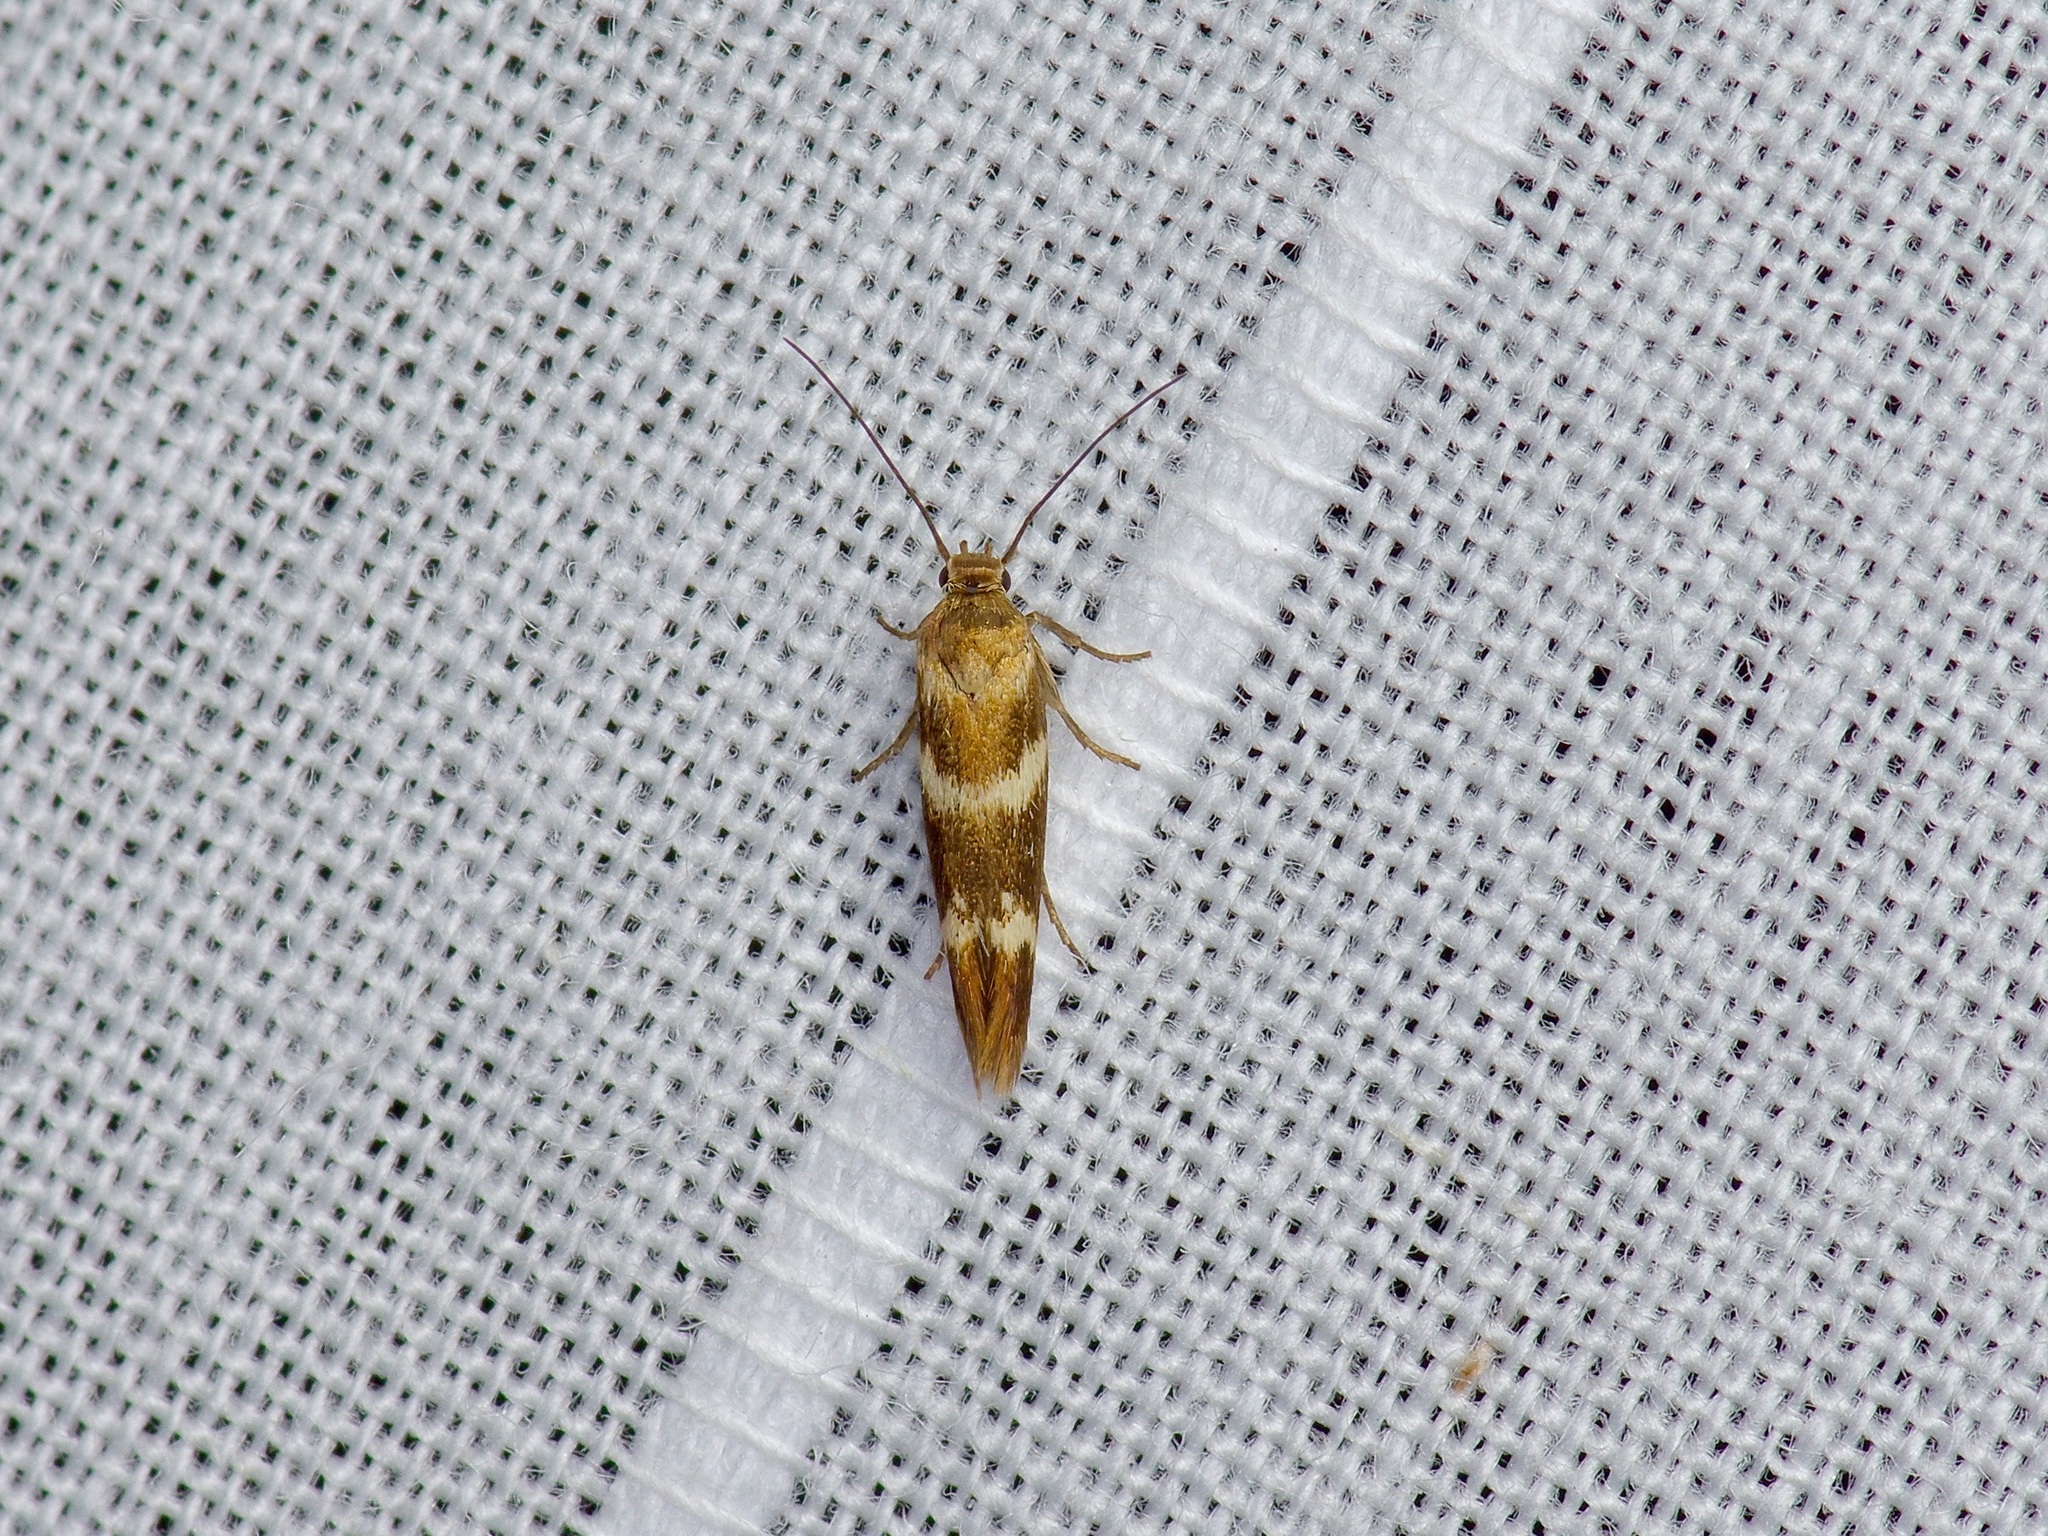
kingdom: Animalia
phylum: Arthropoda
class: Insecta
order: Lepidoptera
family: Scythrididae
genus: Scythris
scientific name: Scythris trivinctella
